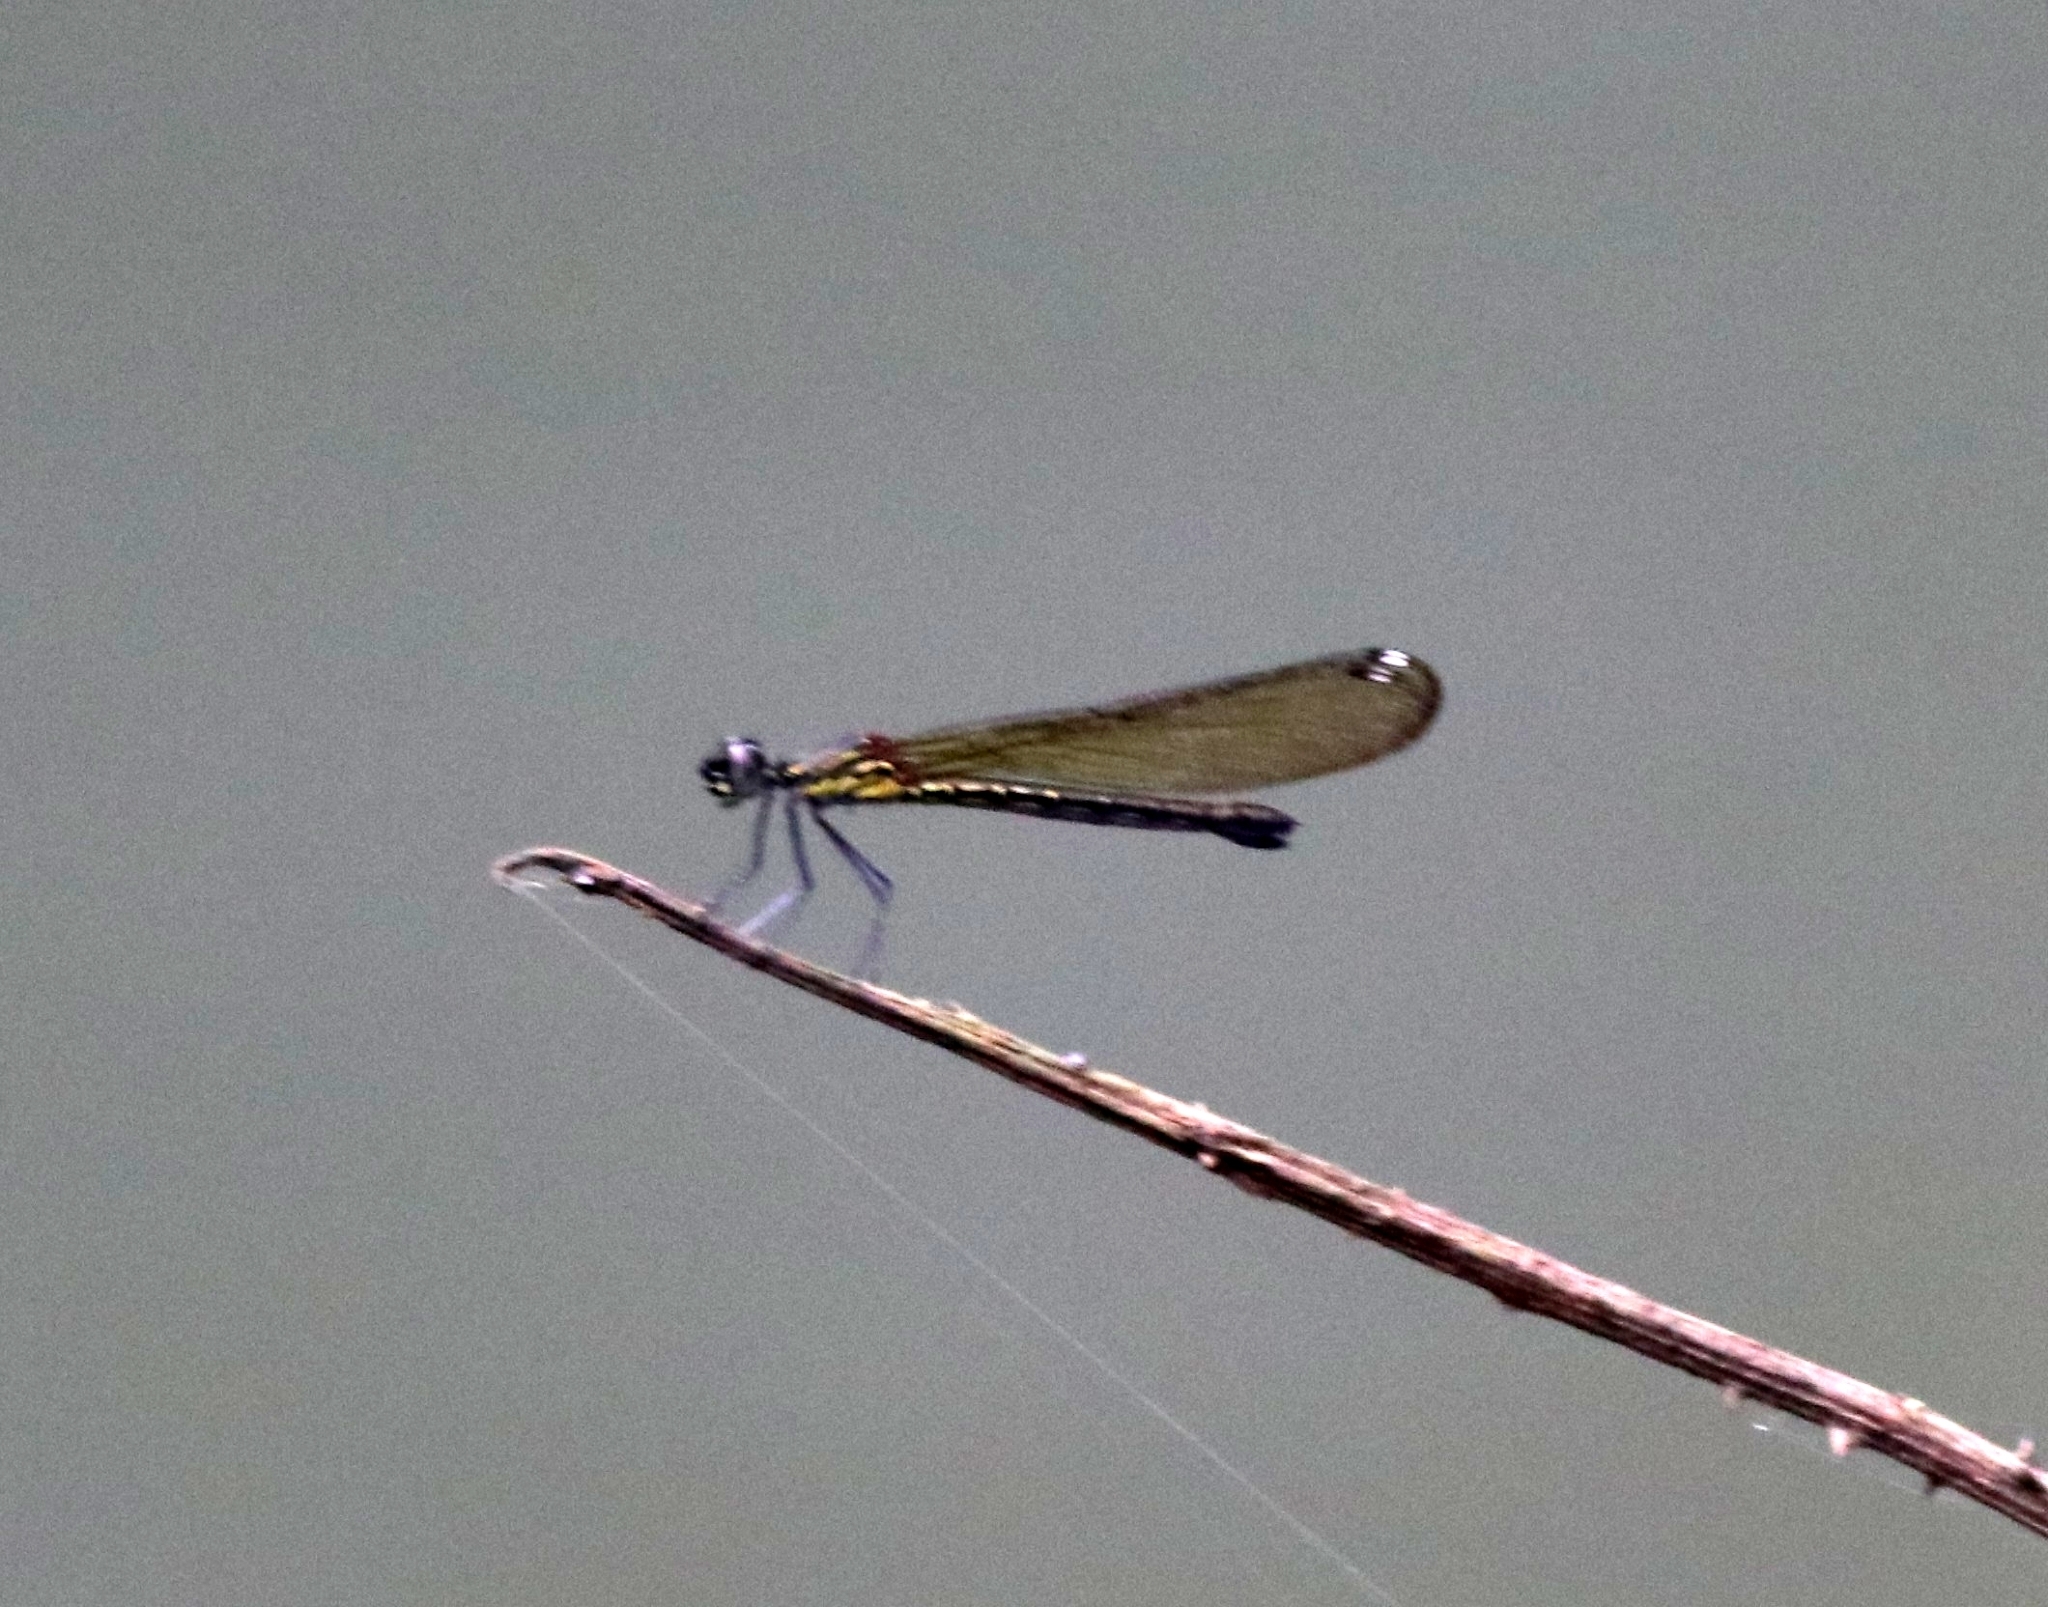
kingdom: Animalia
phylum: Arthropoda
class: Insecta
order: Odonata
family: Chlorocyphidae
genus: Heliocypha
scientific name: Heliocypha bisignata
